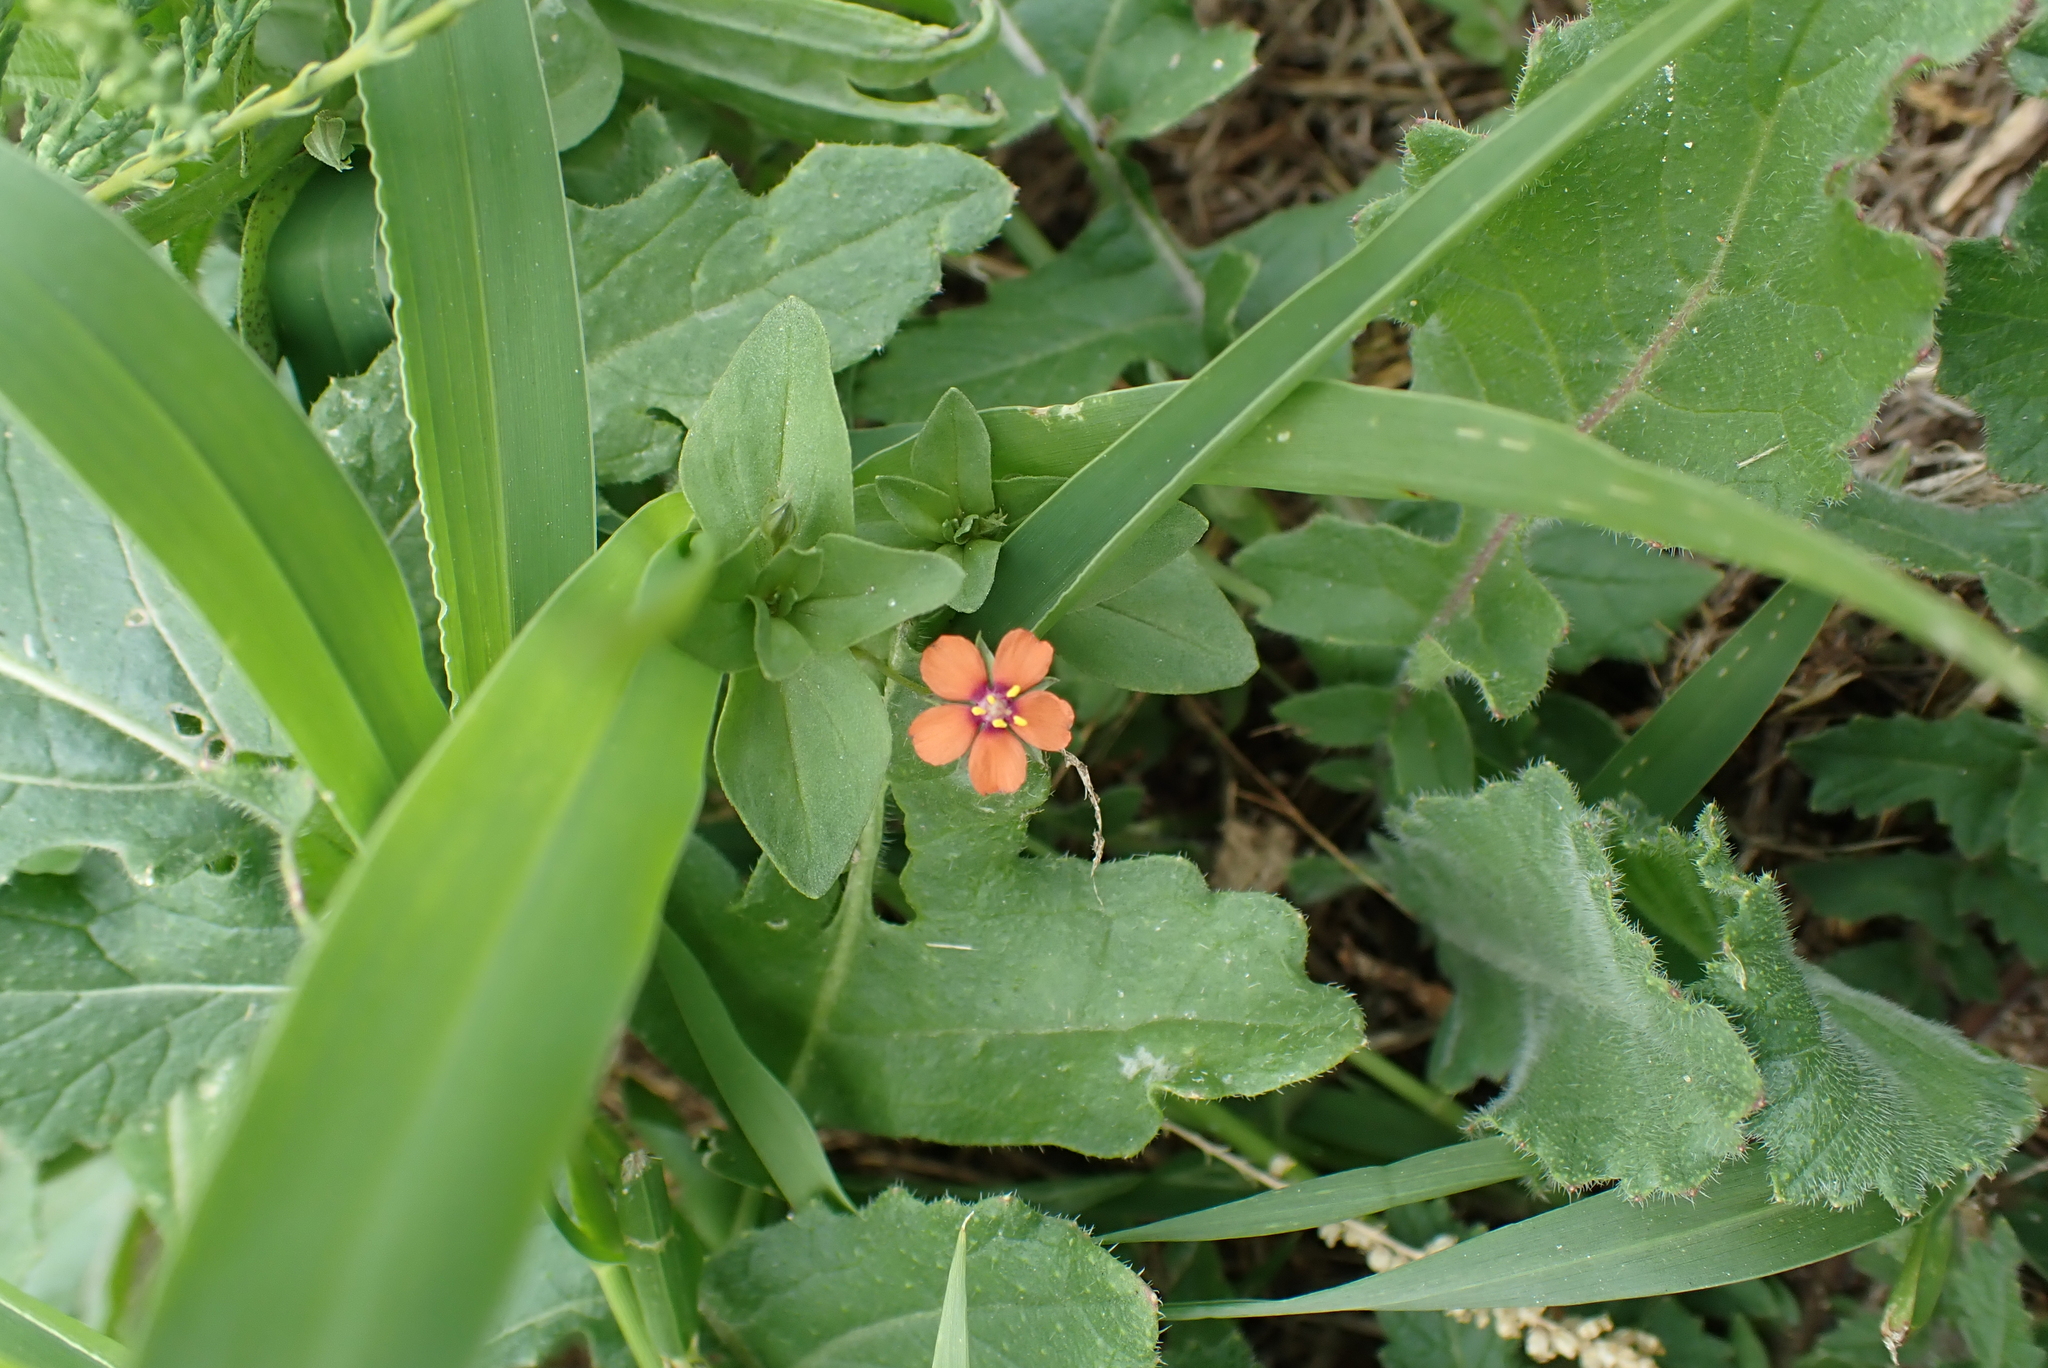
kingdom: Plantae
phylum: Tracheophyta
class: Magnoliopsida
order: Ericales
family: Primulaceae
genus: Lysimachia
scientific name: Lysimachia arvensis
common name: Scarlet pimpernel
